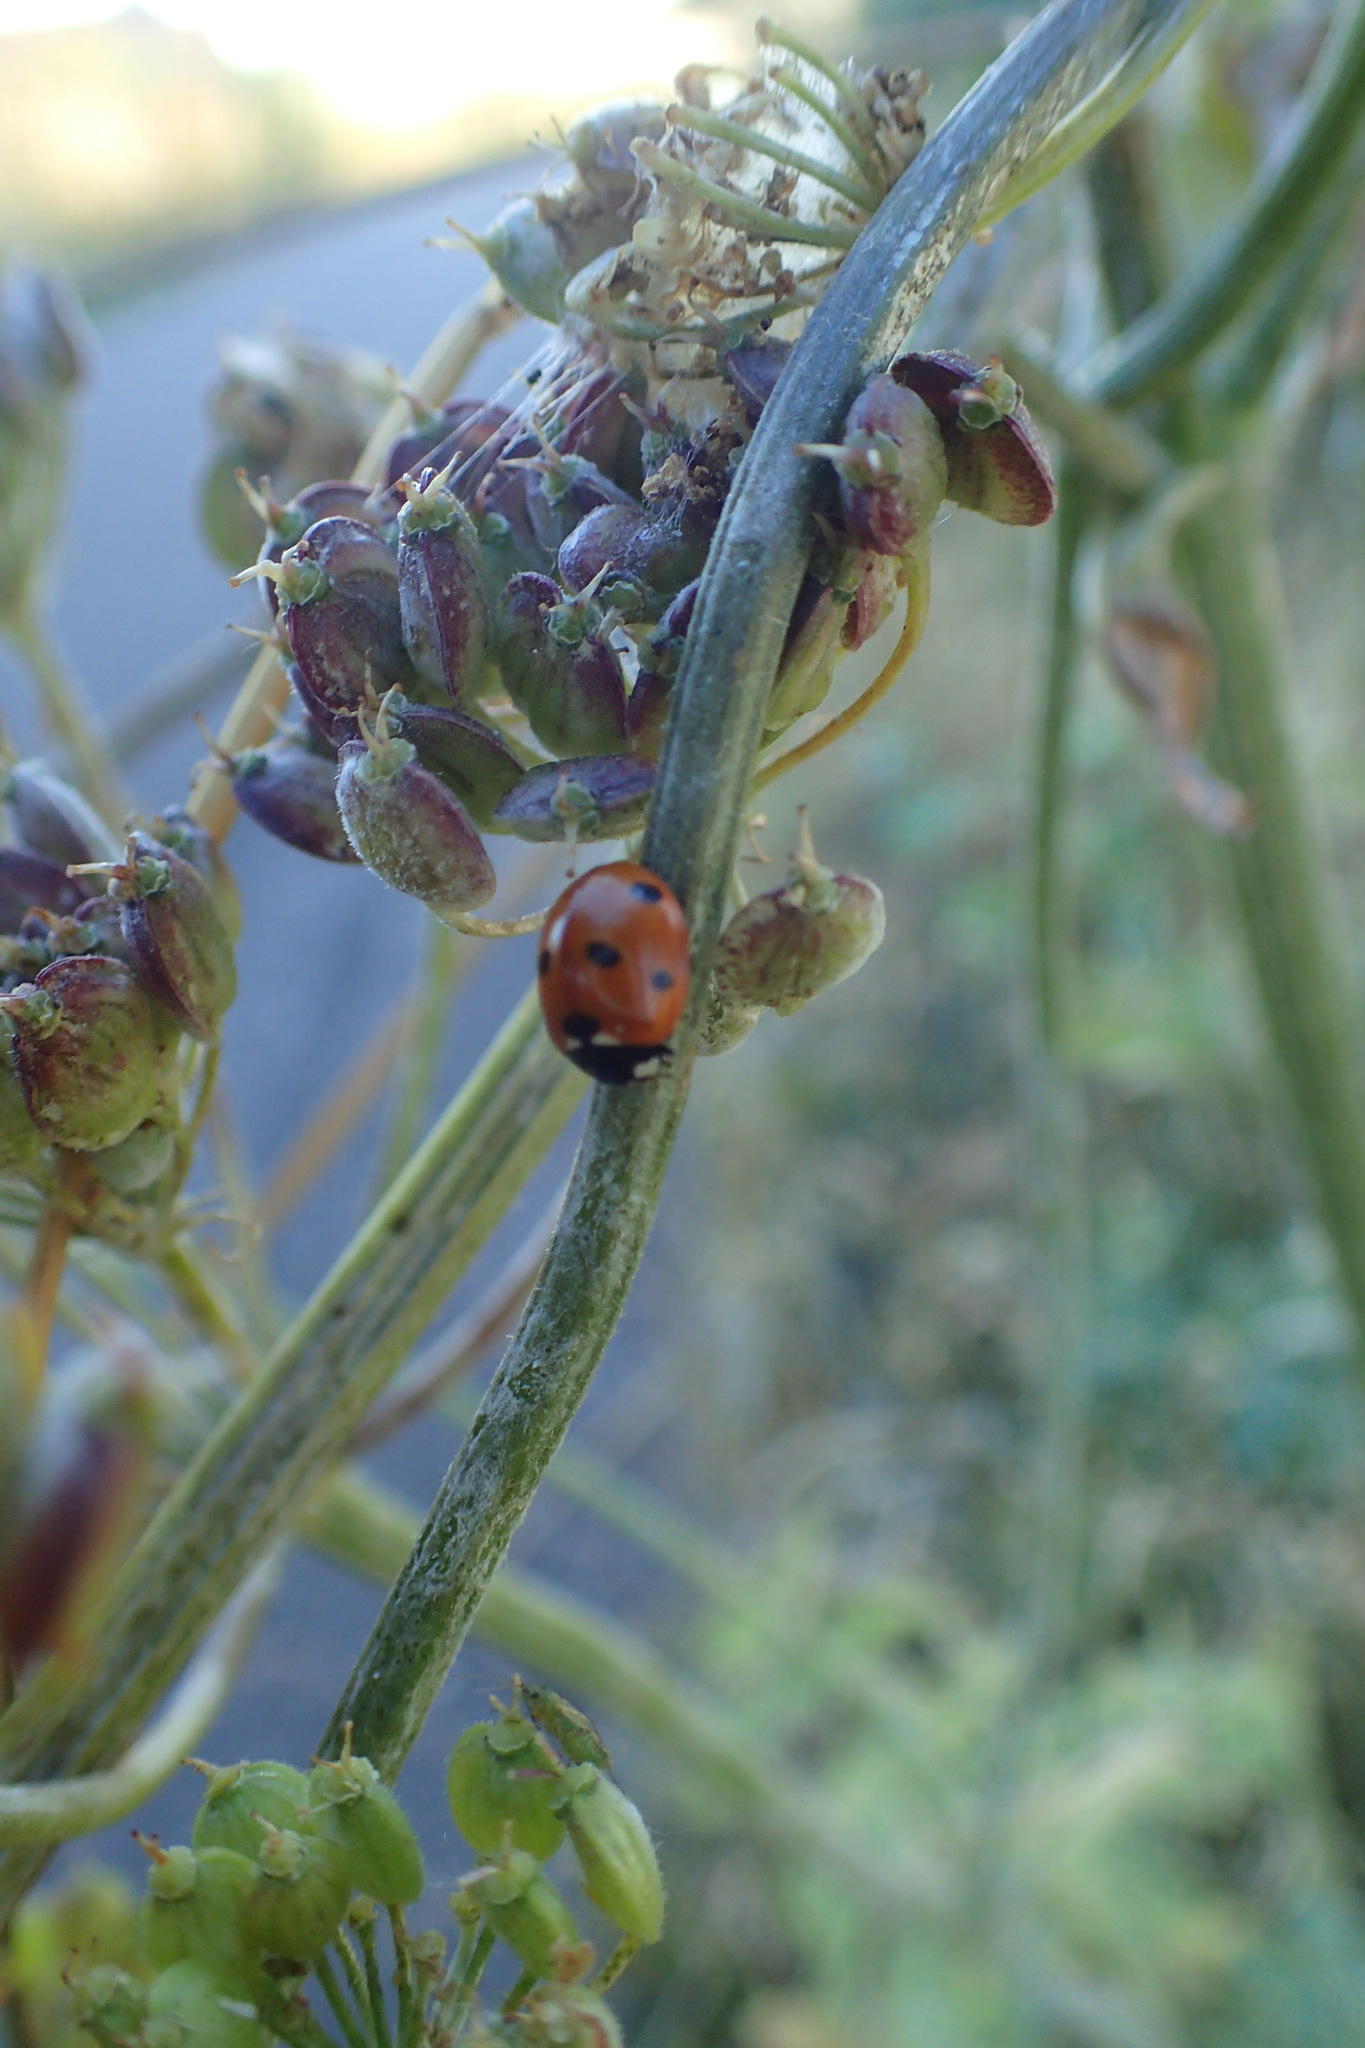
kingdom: Animalia
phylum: Arthropoda
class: Insecta
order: Coleoptera
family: Coccinellidae
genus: Coccinella
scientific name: Coccinella septempunctata
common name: Sevenspotted lady beetle
